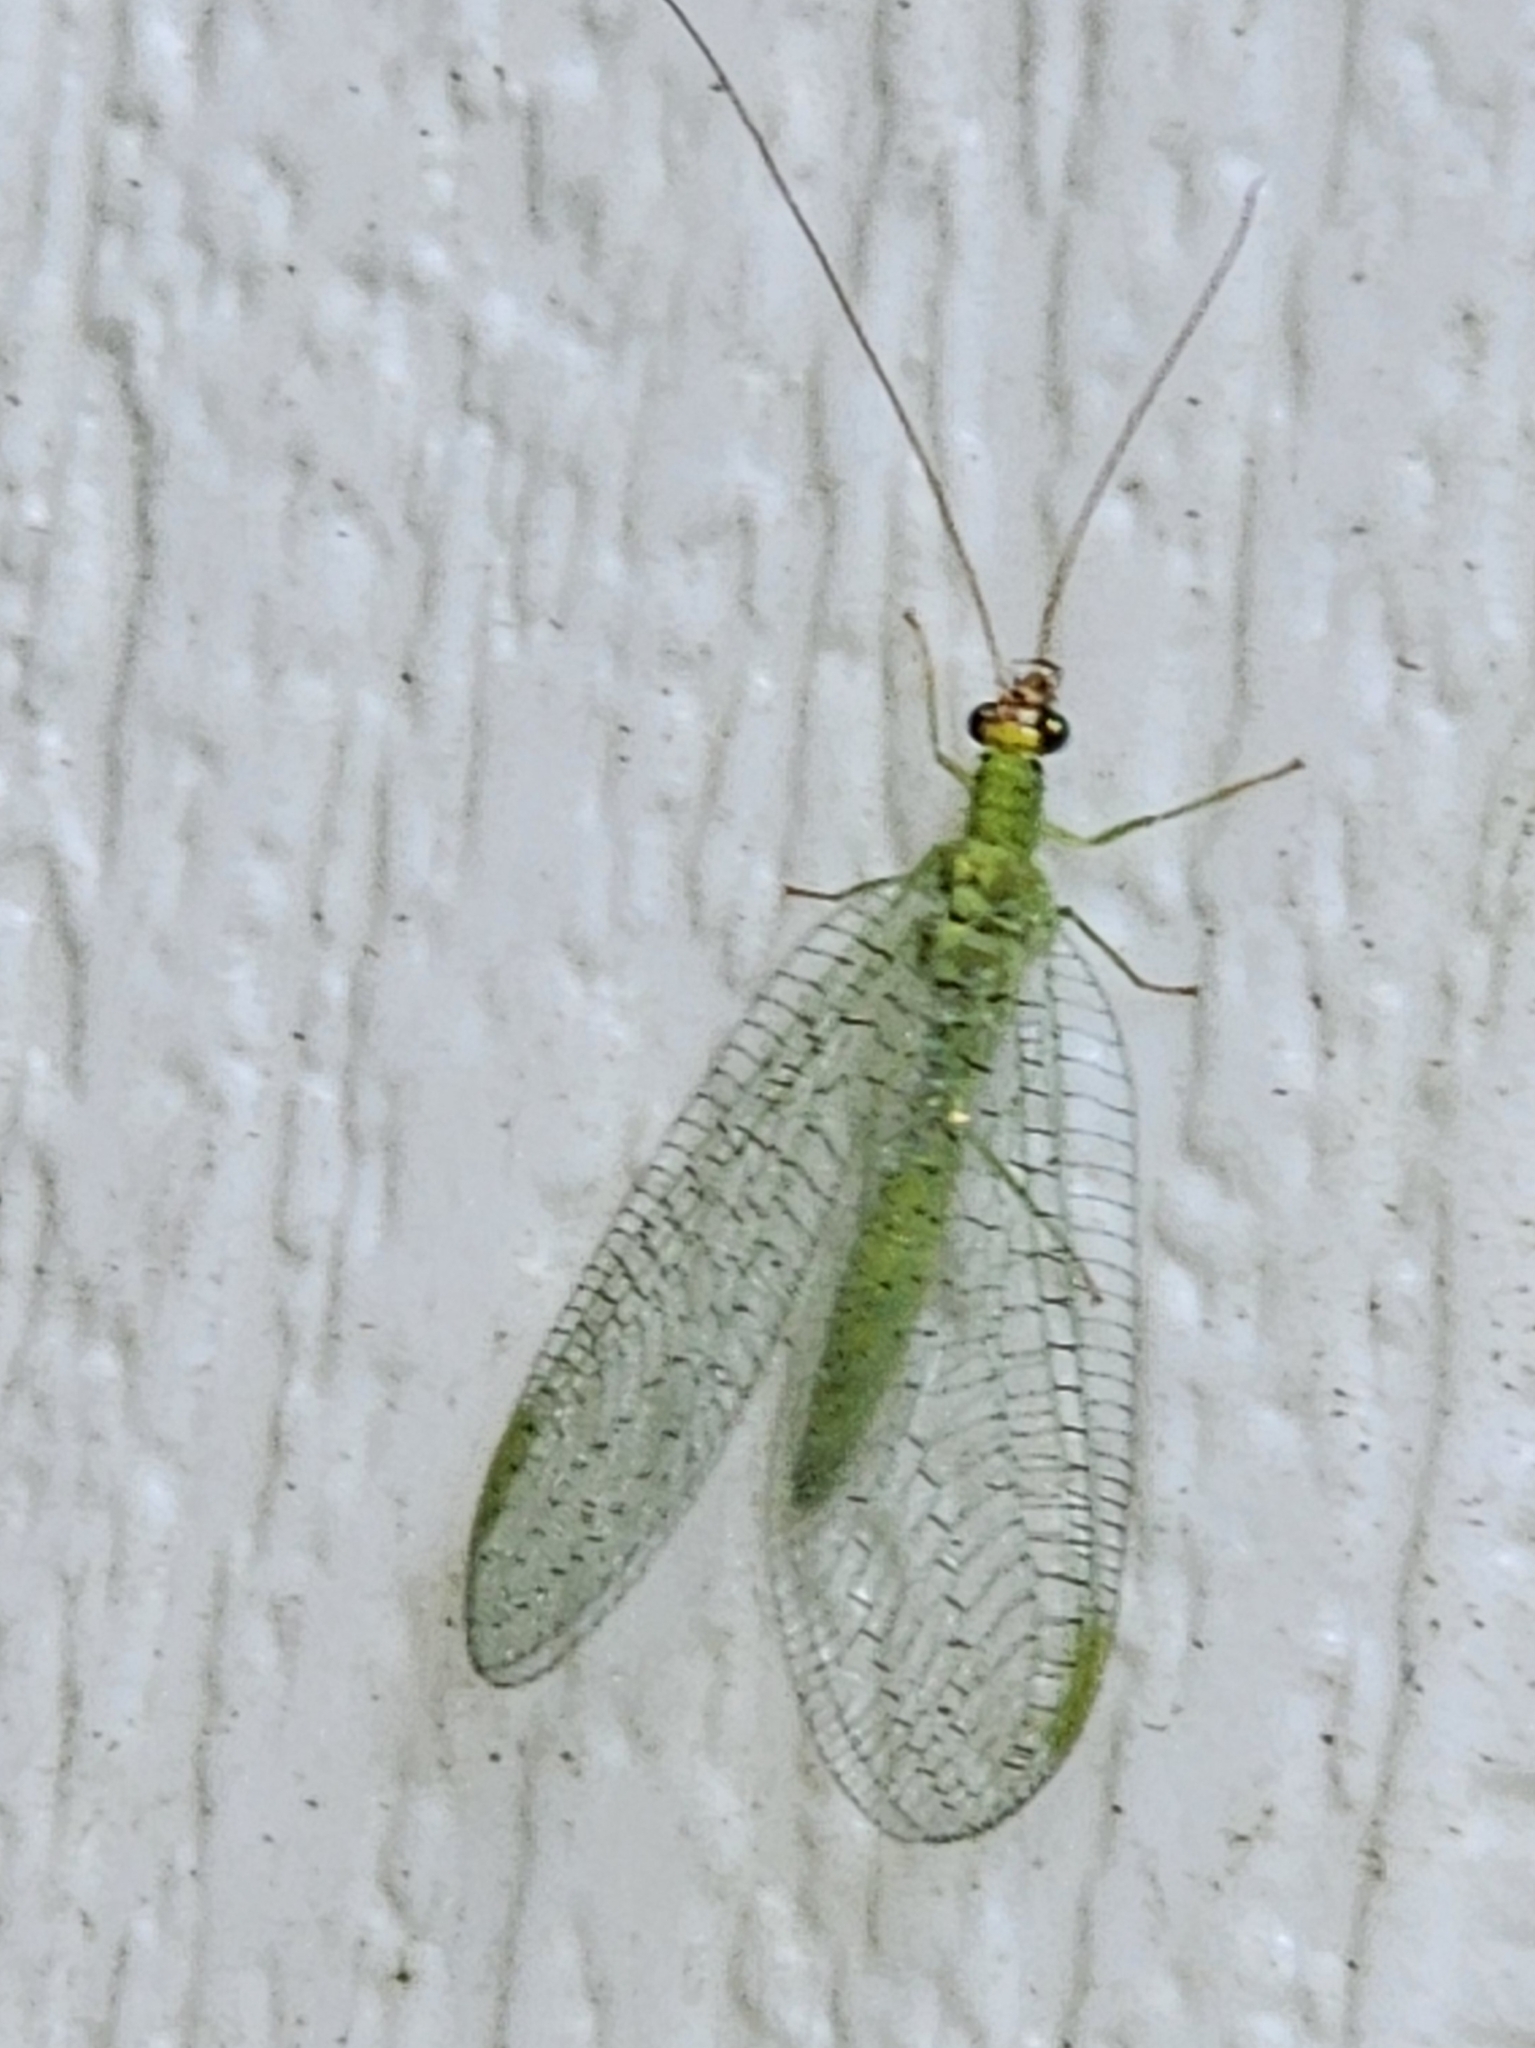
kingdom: Animalia
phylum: Arthropoda
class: Insecta
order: Neuroptera
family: Chrysopidae
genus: Chrysopa
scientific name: Chrysopa oculata
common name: Golden-eyed lacewing
